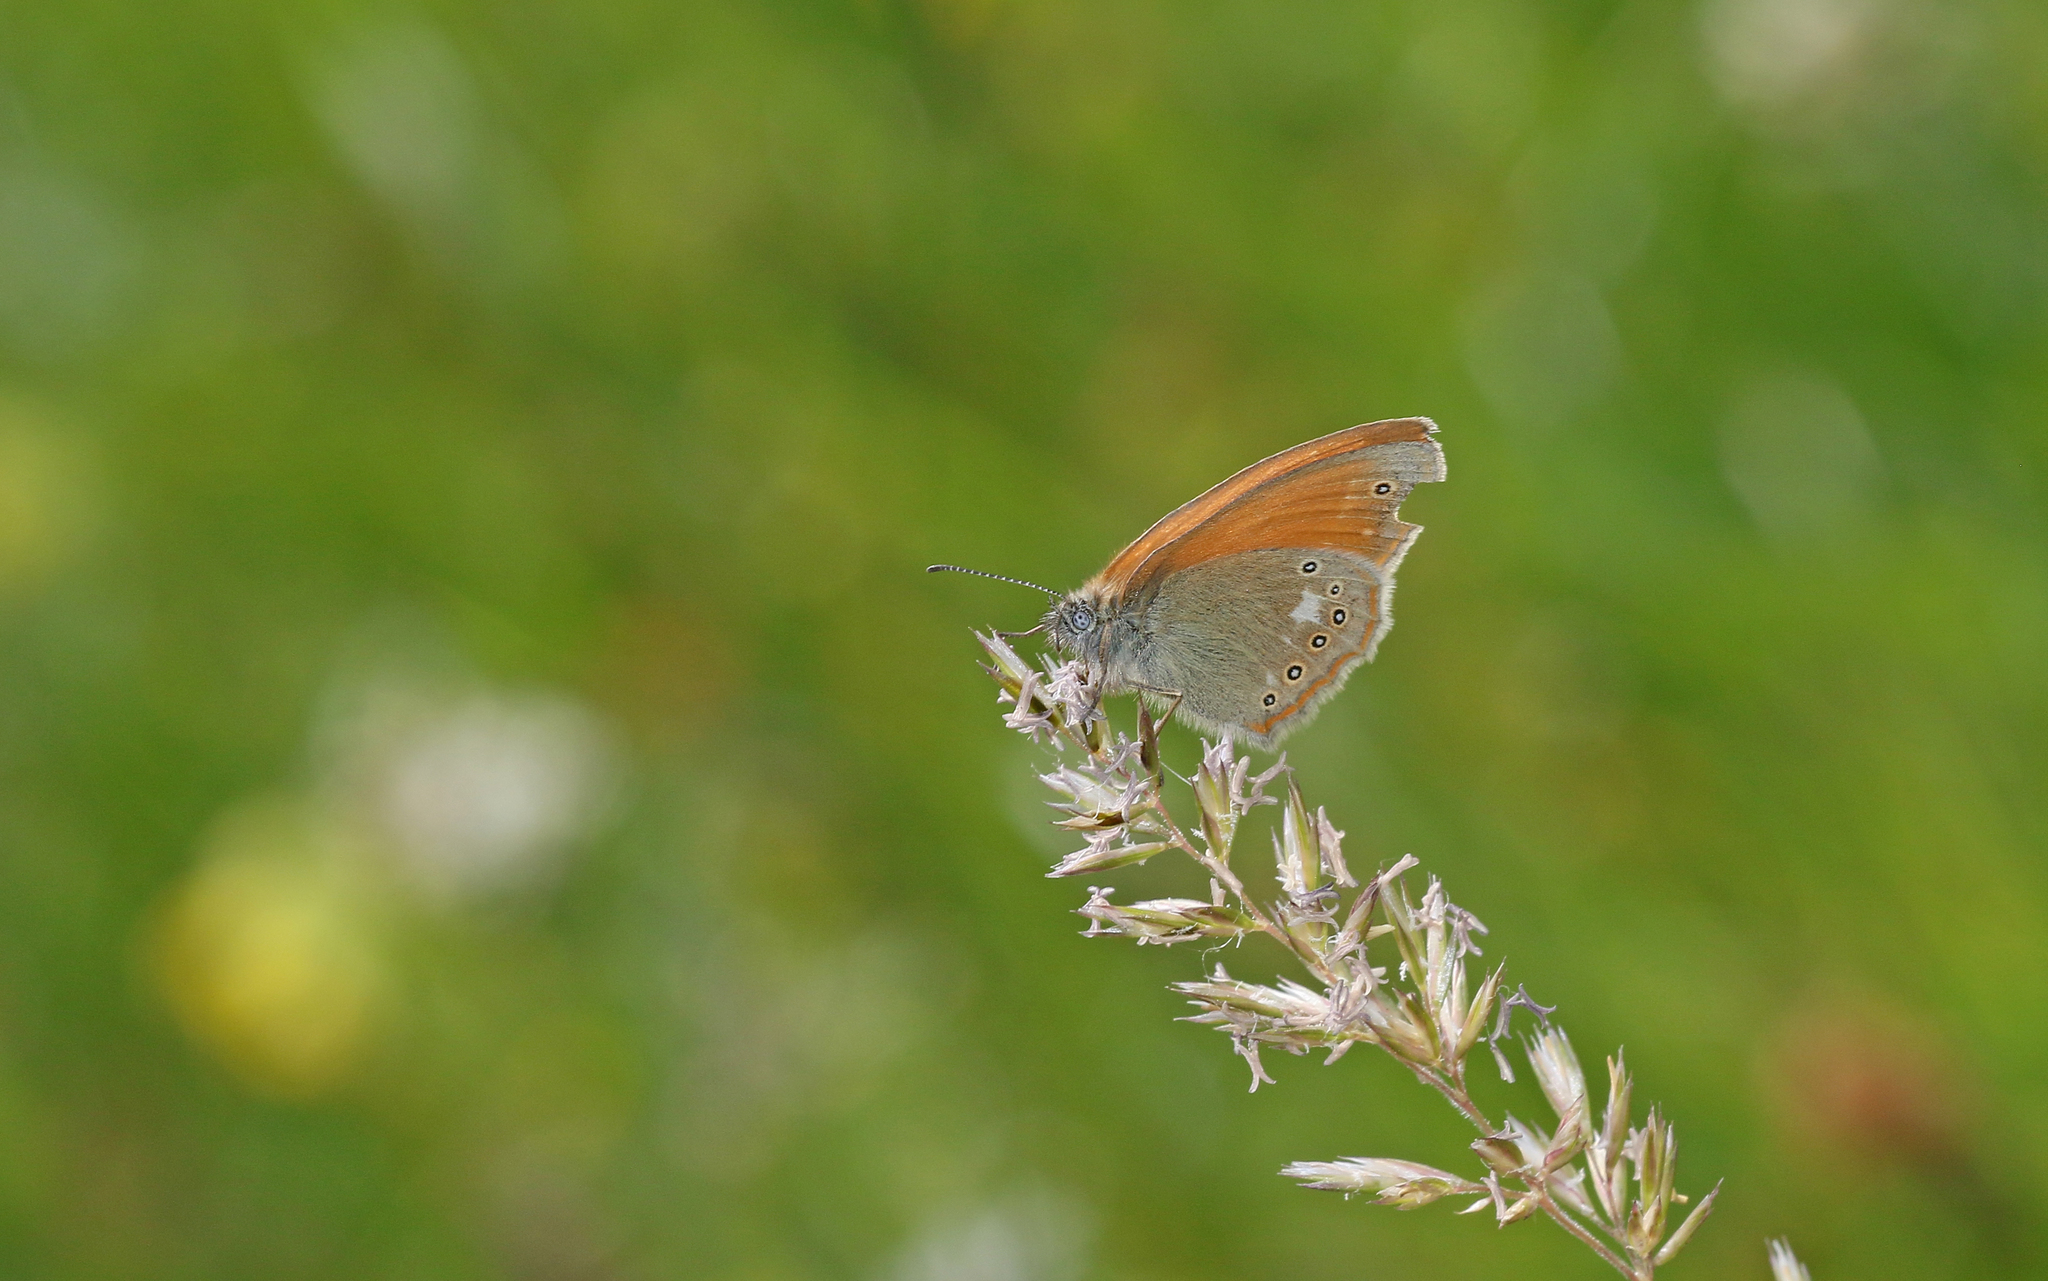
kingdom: Animalia
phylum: Arthropoda
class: Insecta
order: Lepidoptera
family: Nymphalidae
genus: Coenonympha
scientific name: Coenonympha iphis
